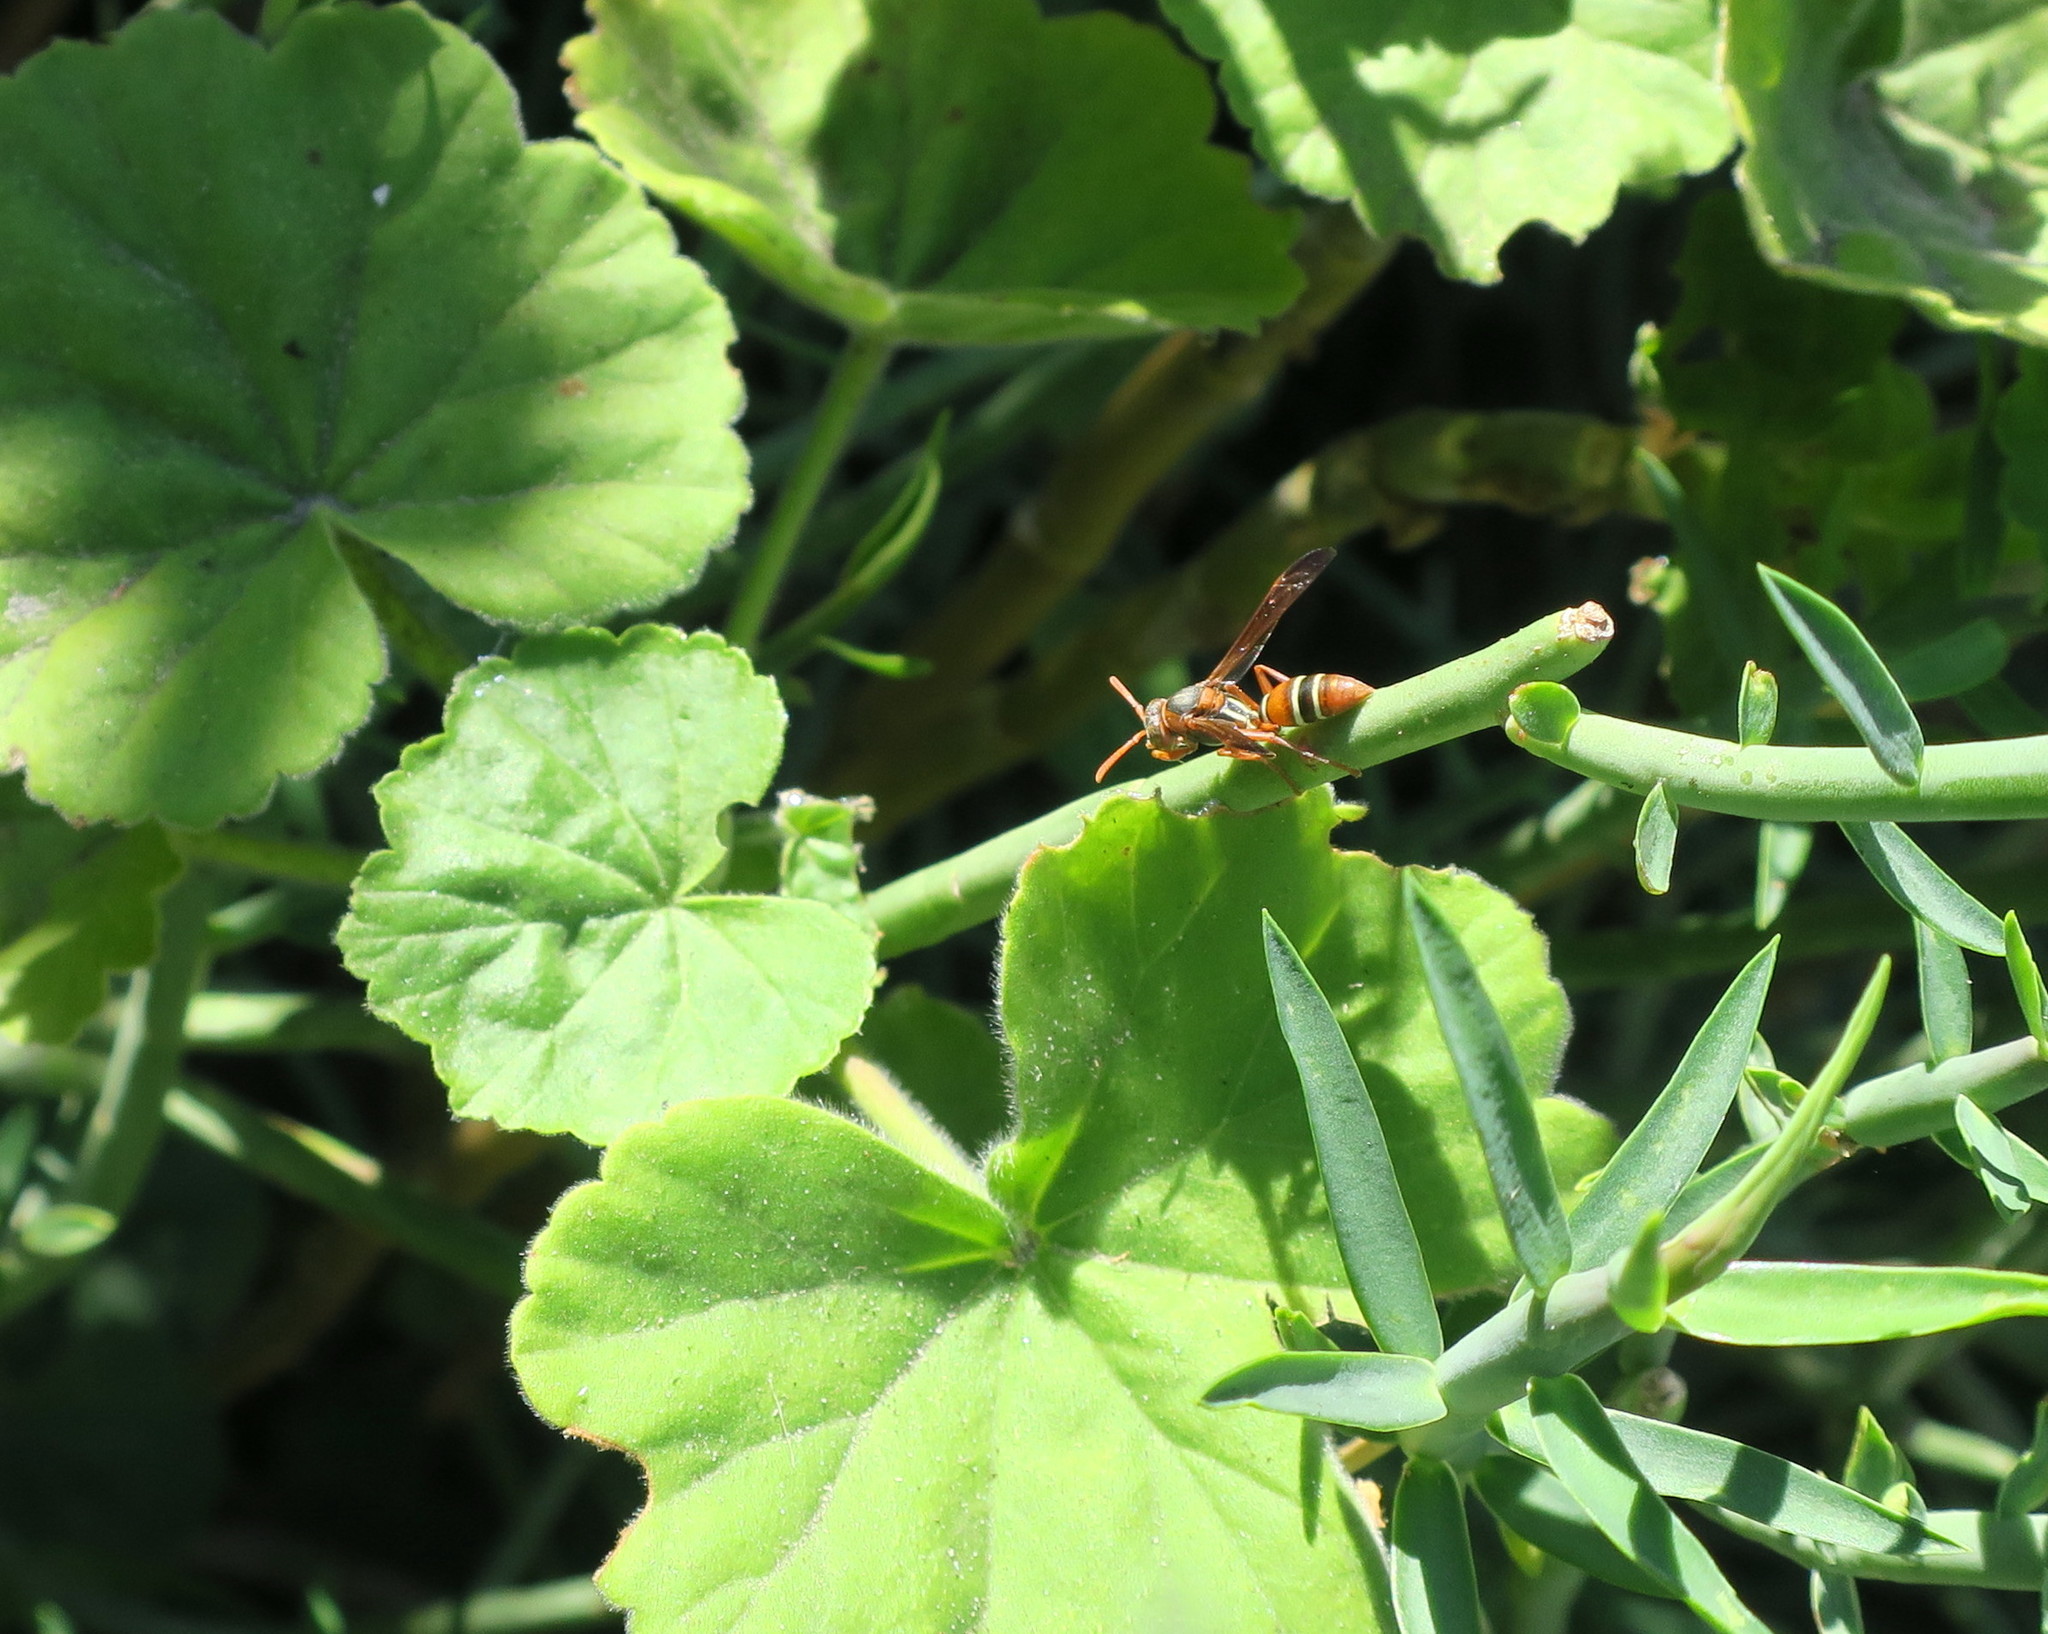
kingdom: Animalia
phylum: Arthropoda
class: Insecta
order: Hymenoptera
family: Eumenidae
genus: Polistes
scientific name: Polistes marginalis
